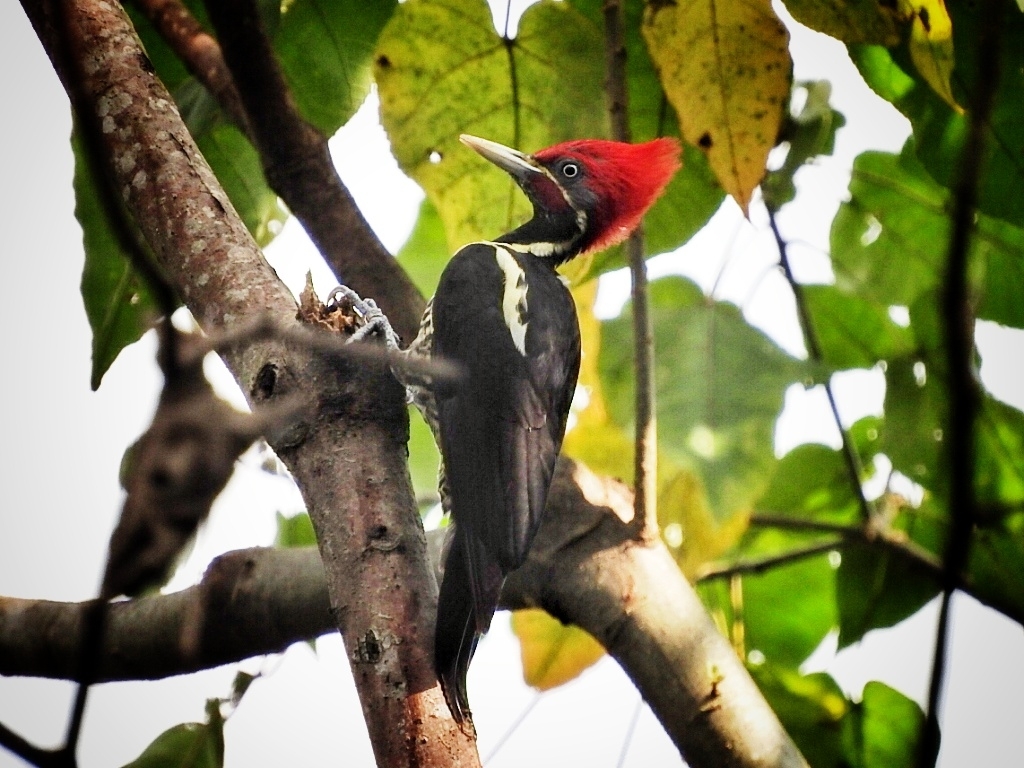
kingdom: Animalia
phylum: Chordata
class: Aves
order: Piciformes
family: Picidae
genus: Dryocopus
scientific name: Dryocopus lineatus
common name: Lineated woodpecker
